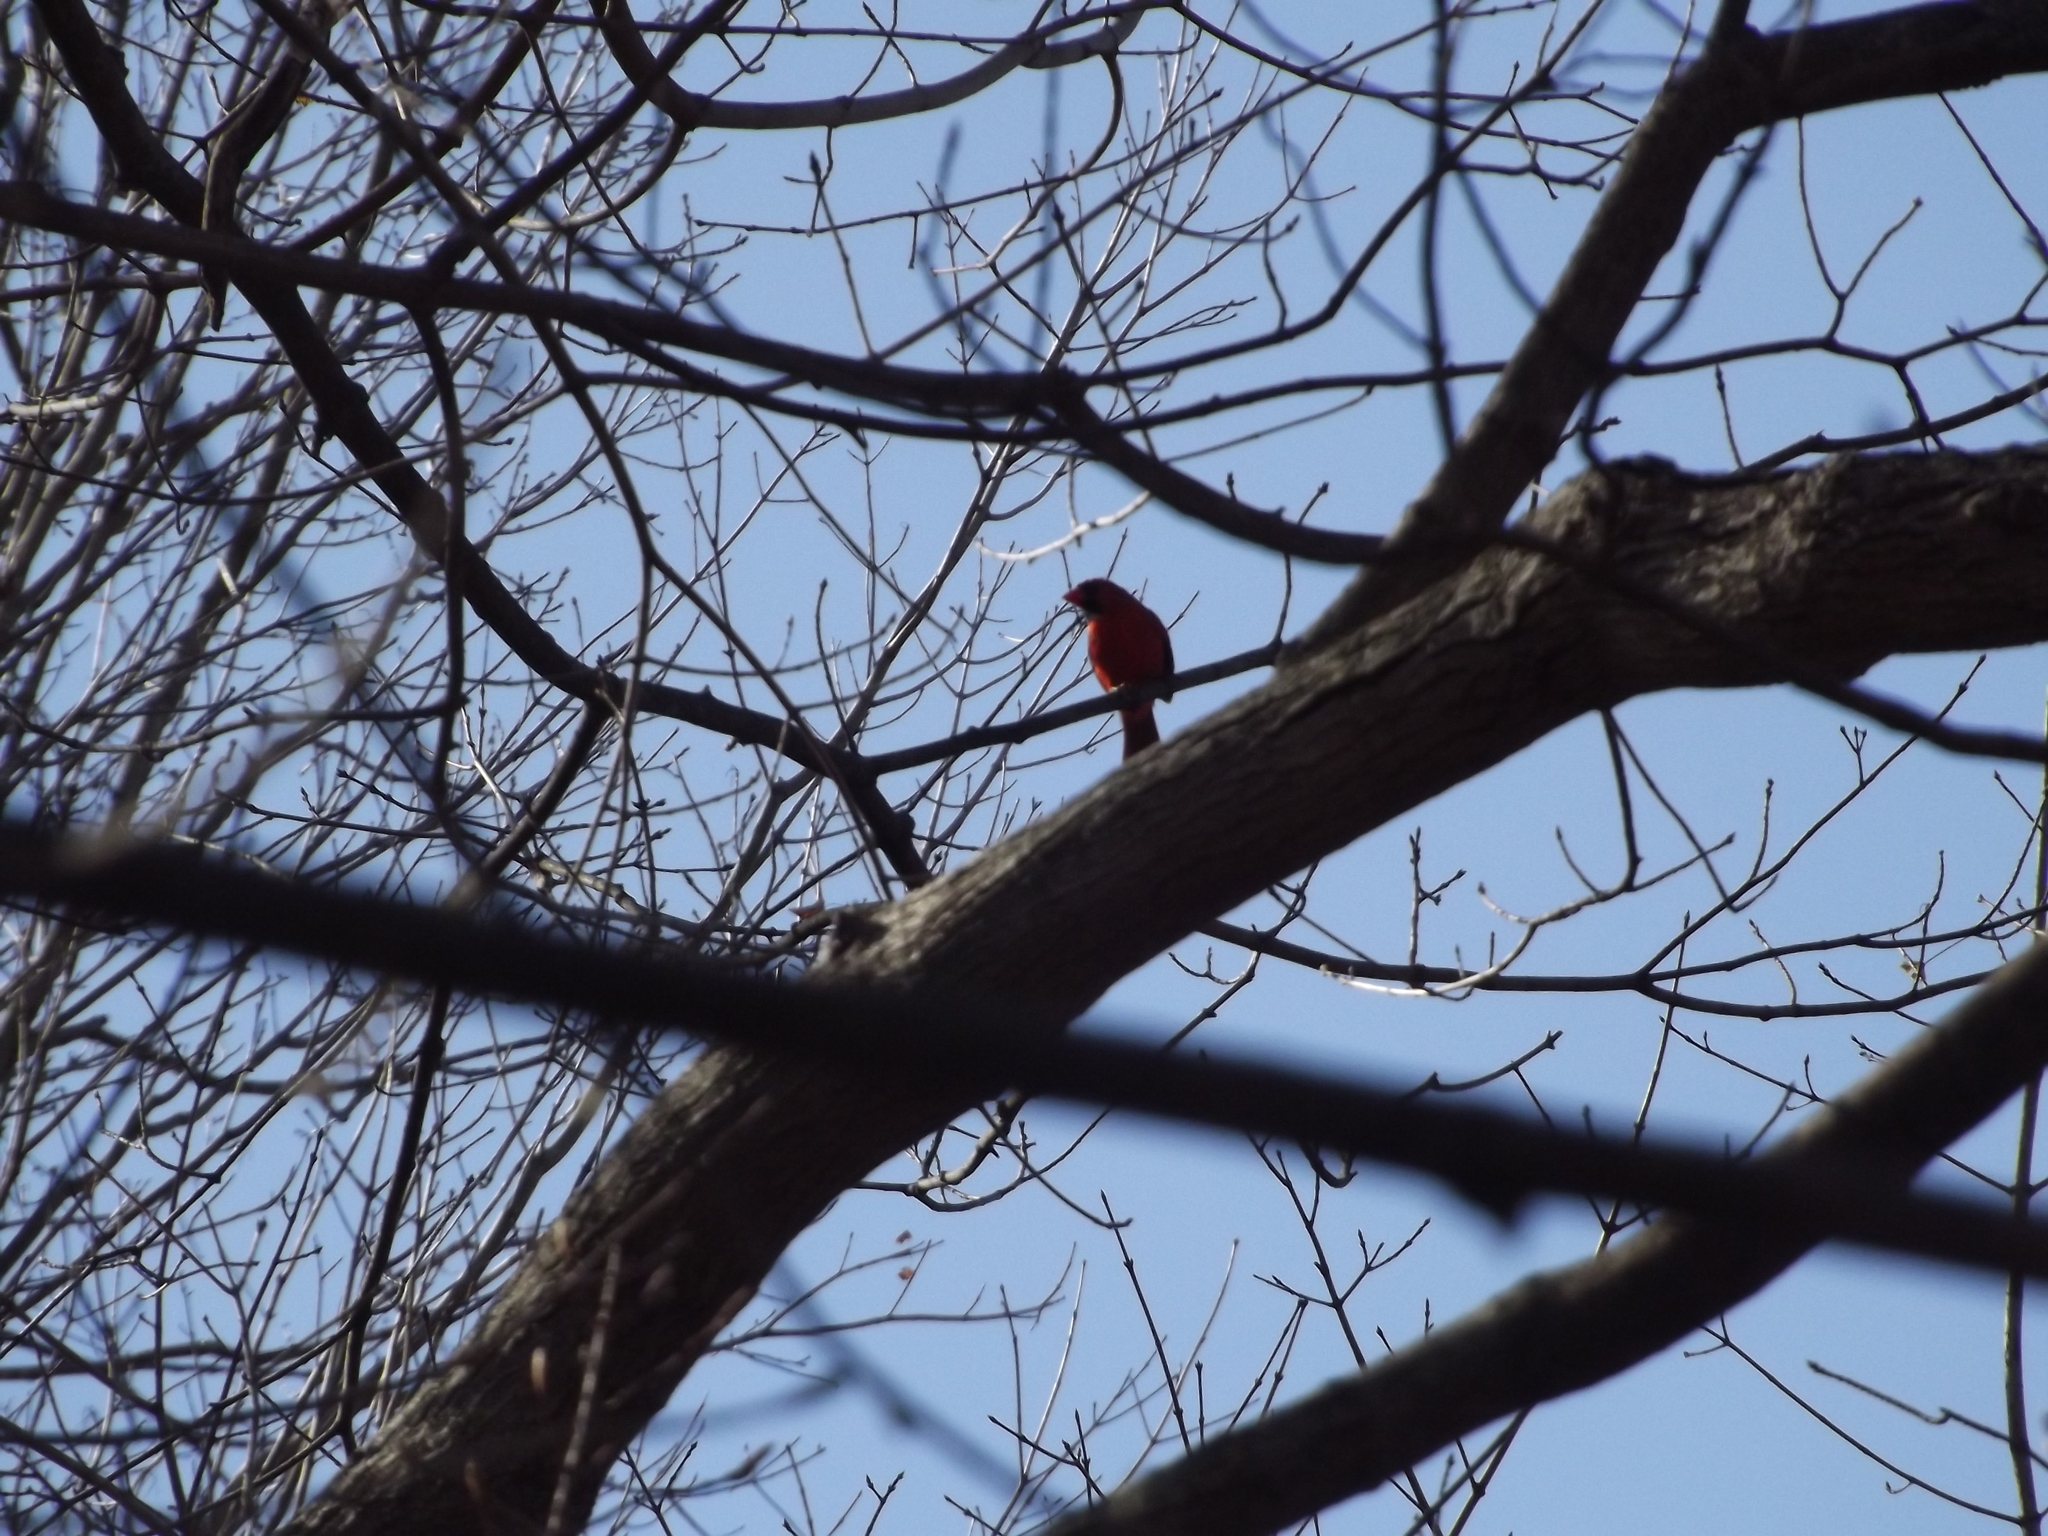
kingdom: Animalia
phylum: Chordata
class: Aves
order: Passeriformes
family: Cardinalidae
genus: Cardinalis
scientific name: Cardinalis cardinalis
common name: Northern cardinal
